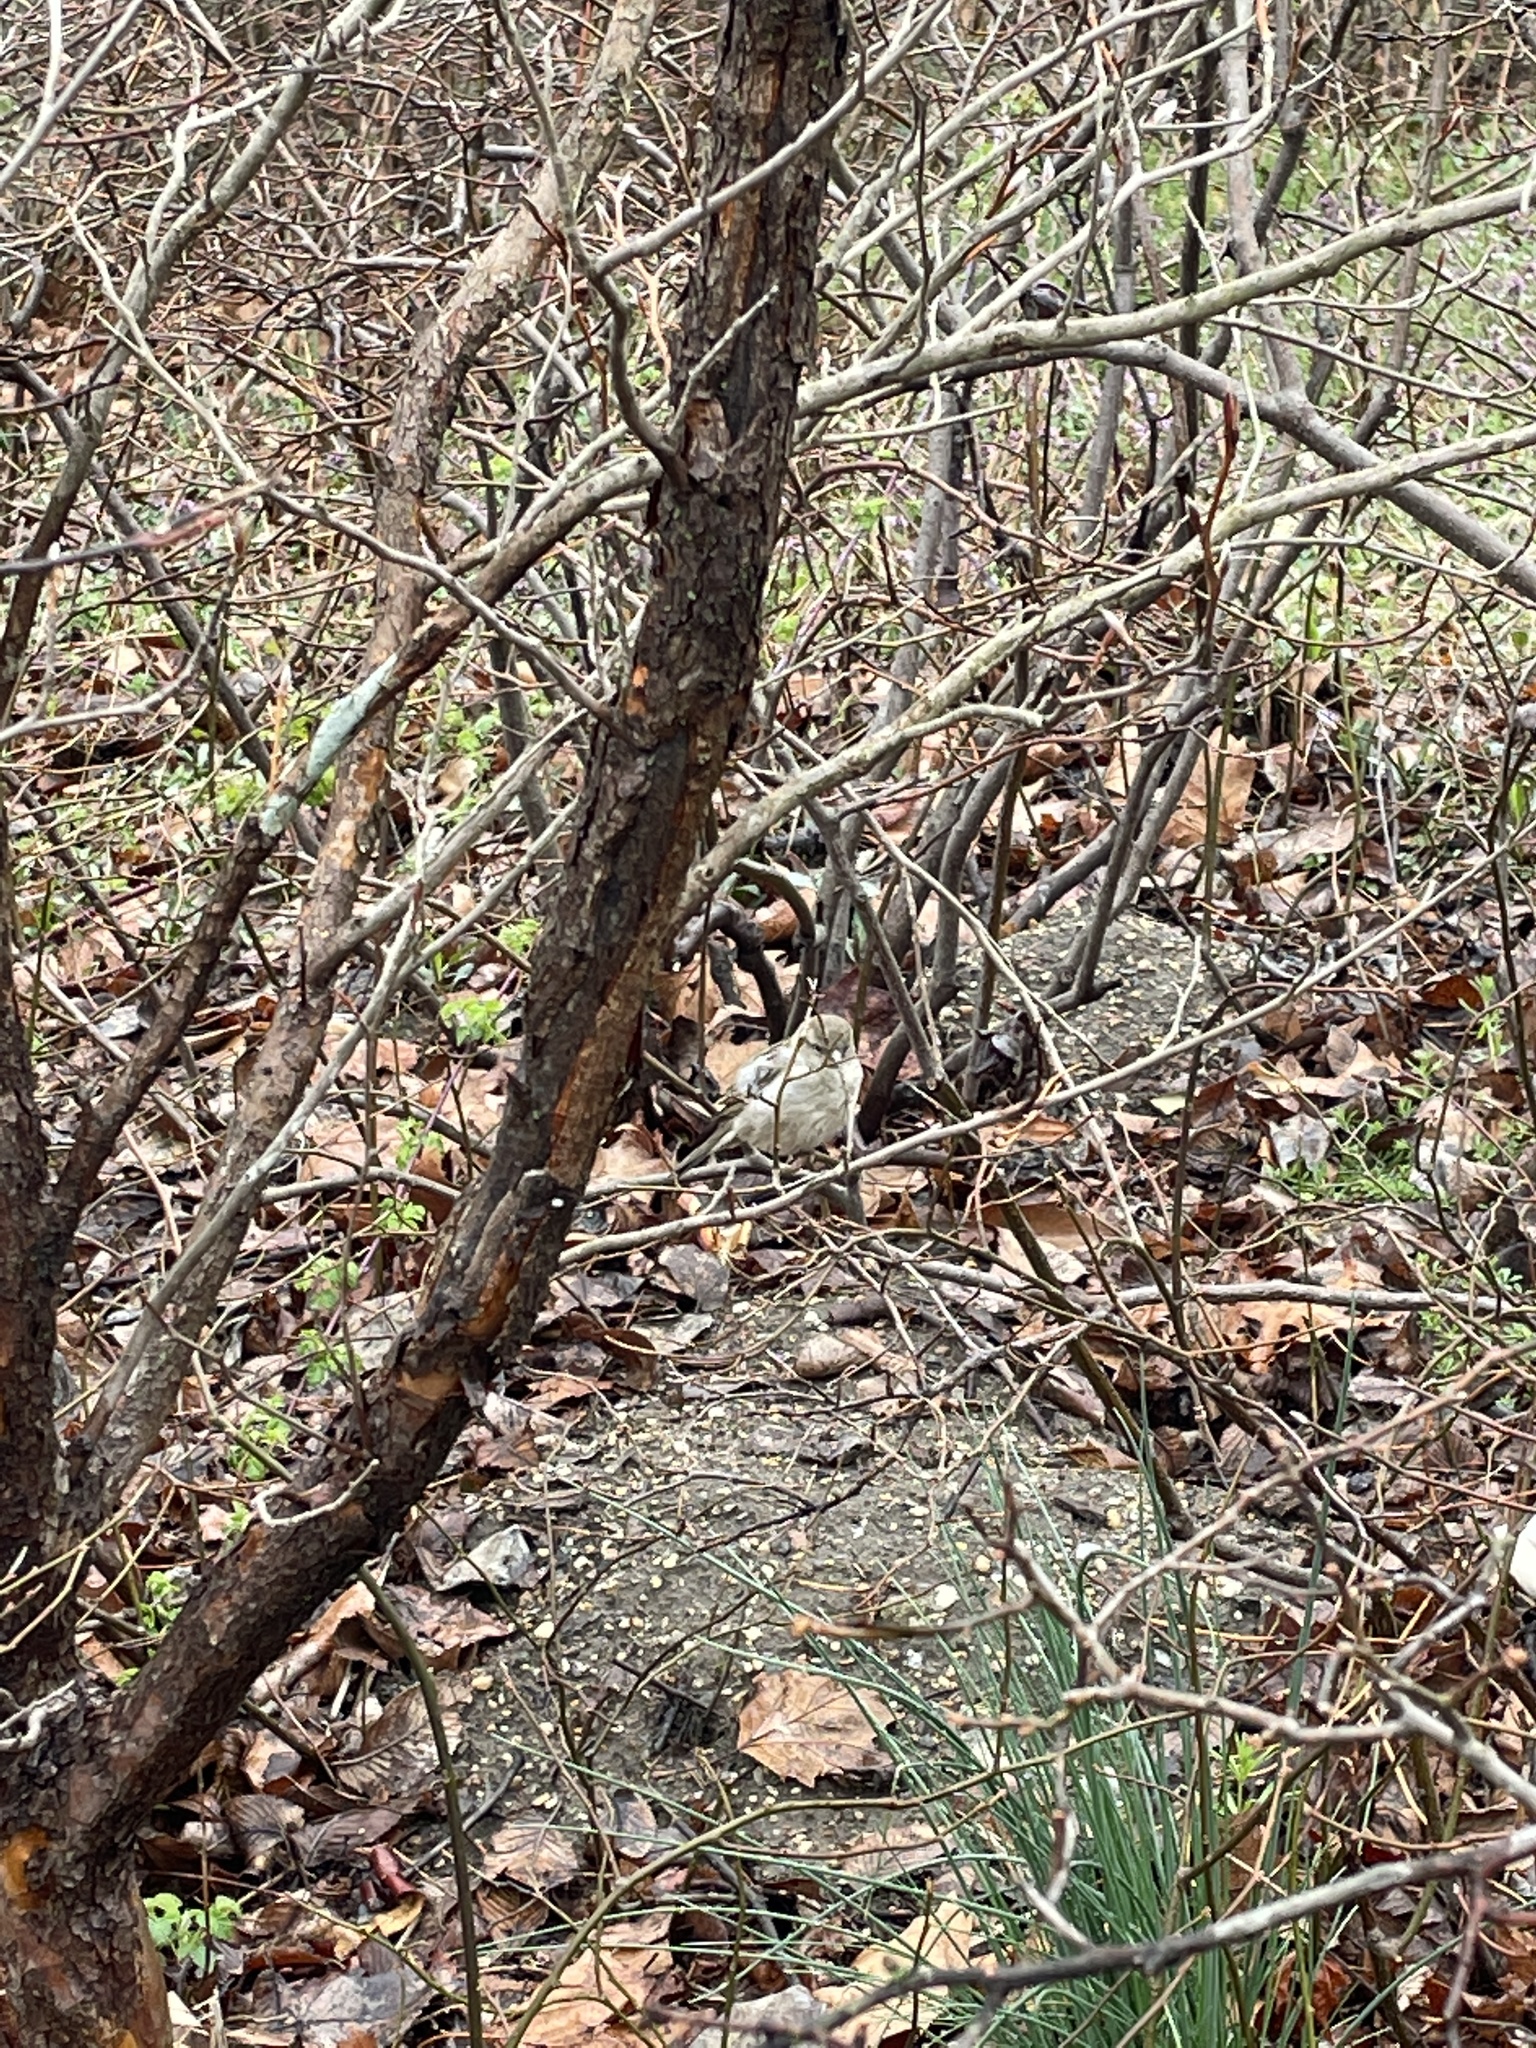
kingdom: Animalia
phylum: Chordata
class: Aves
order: Passeriformes
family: Passeridae
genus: Passer
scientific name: Passer domesticus
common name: House sparrow
